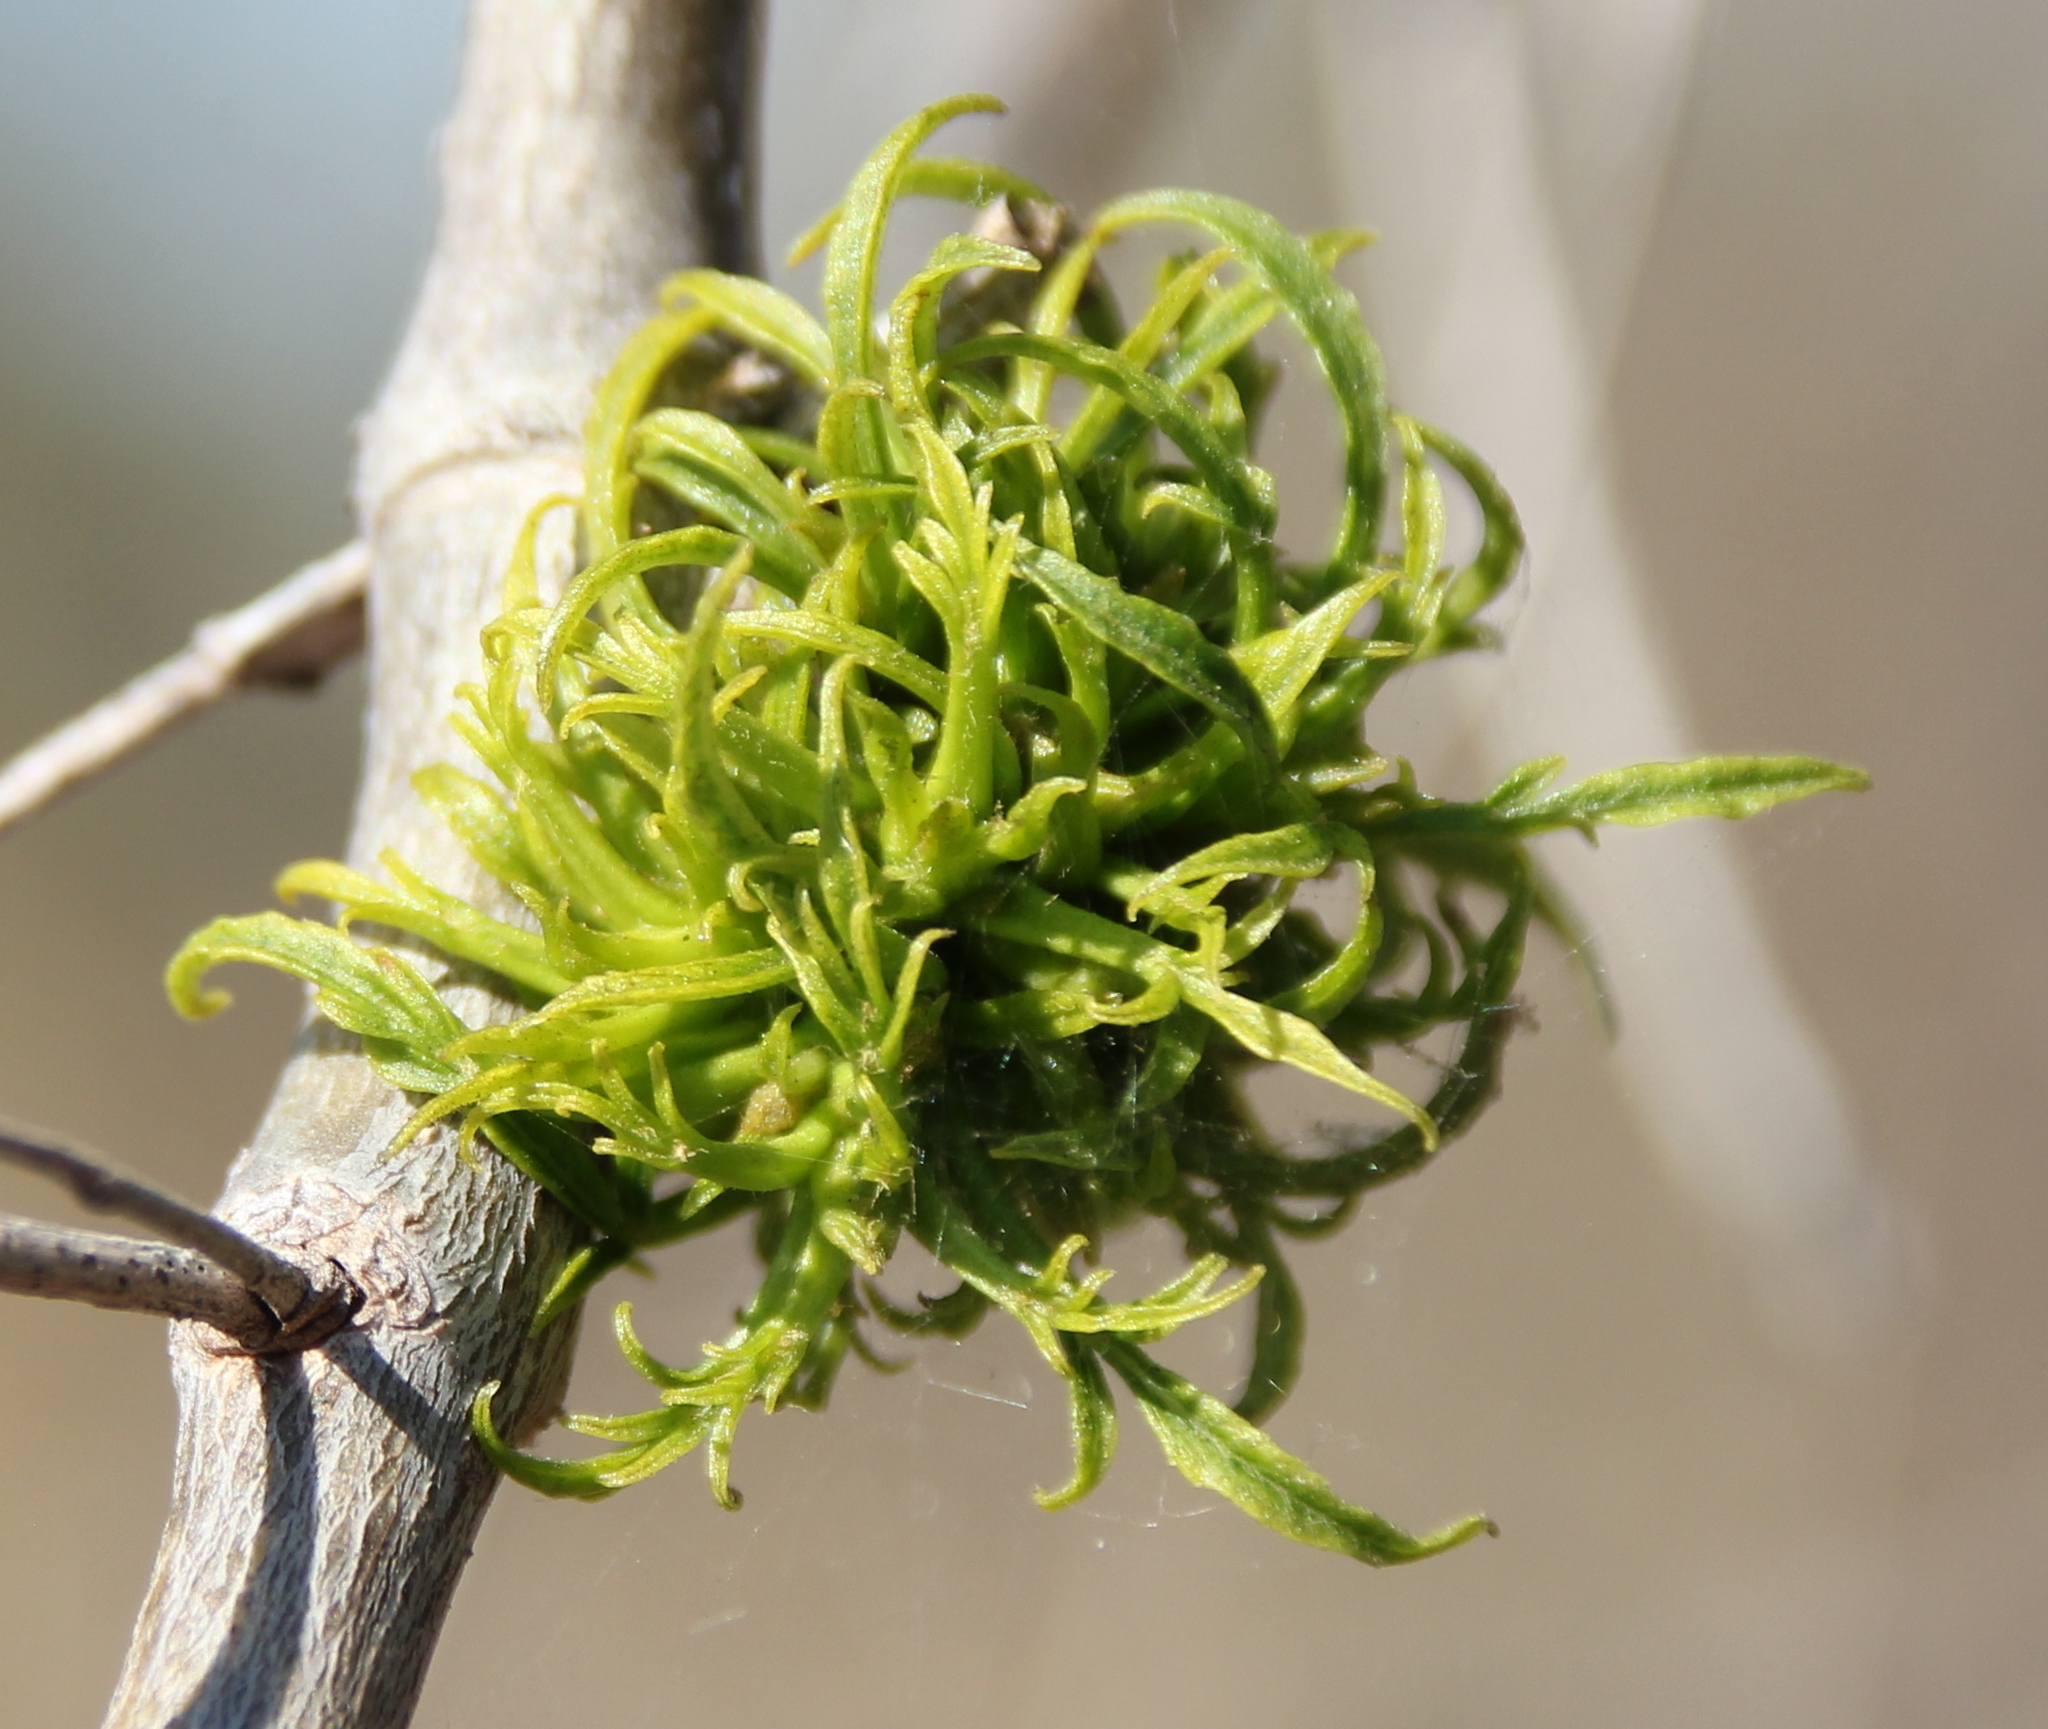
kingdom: Plantae
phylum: Tracheophyta
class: Magnoliopsida
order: Lamiales
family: Oleaceae
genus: Fraxinus
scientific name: Fraxinus
